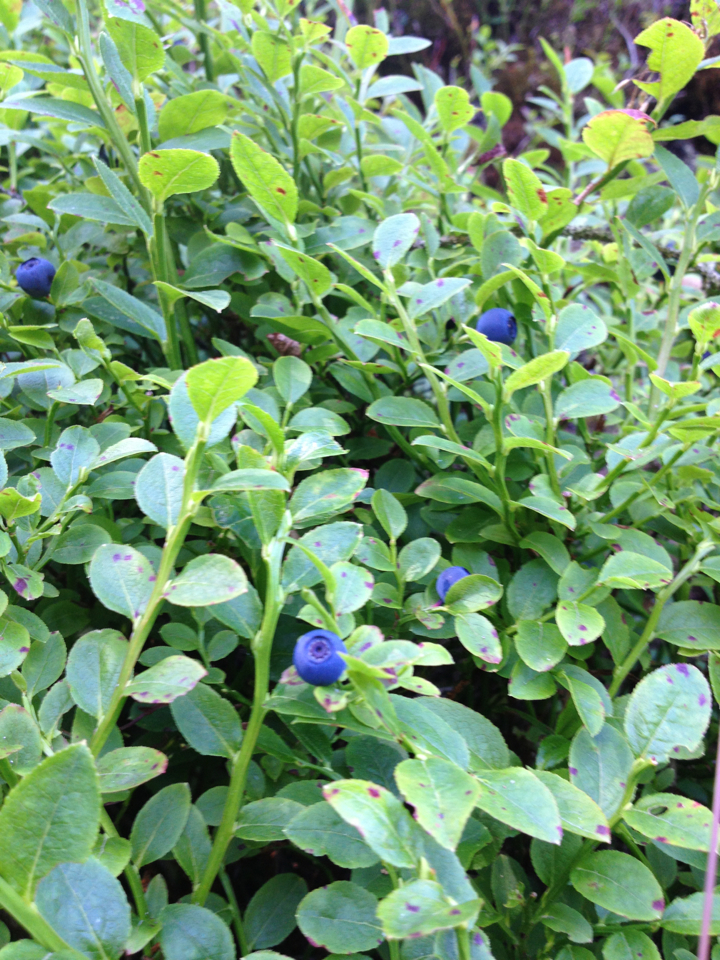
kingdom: Plantae
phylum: Tracheophyta
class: Magnoliopsida
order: Ericales
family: Ericaceae
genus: Vaccinium
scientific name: Vaccinium myrtillus
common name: Bilberry
